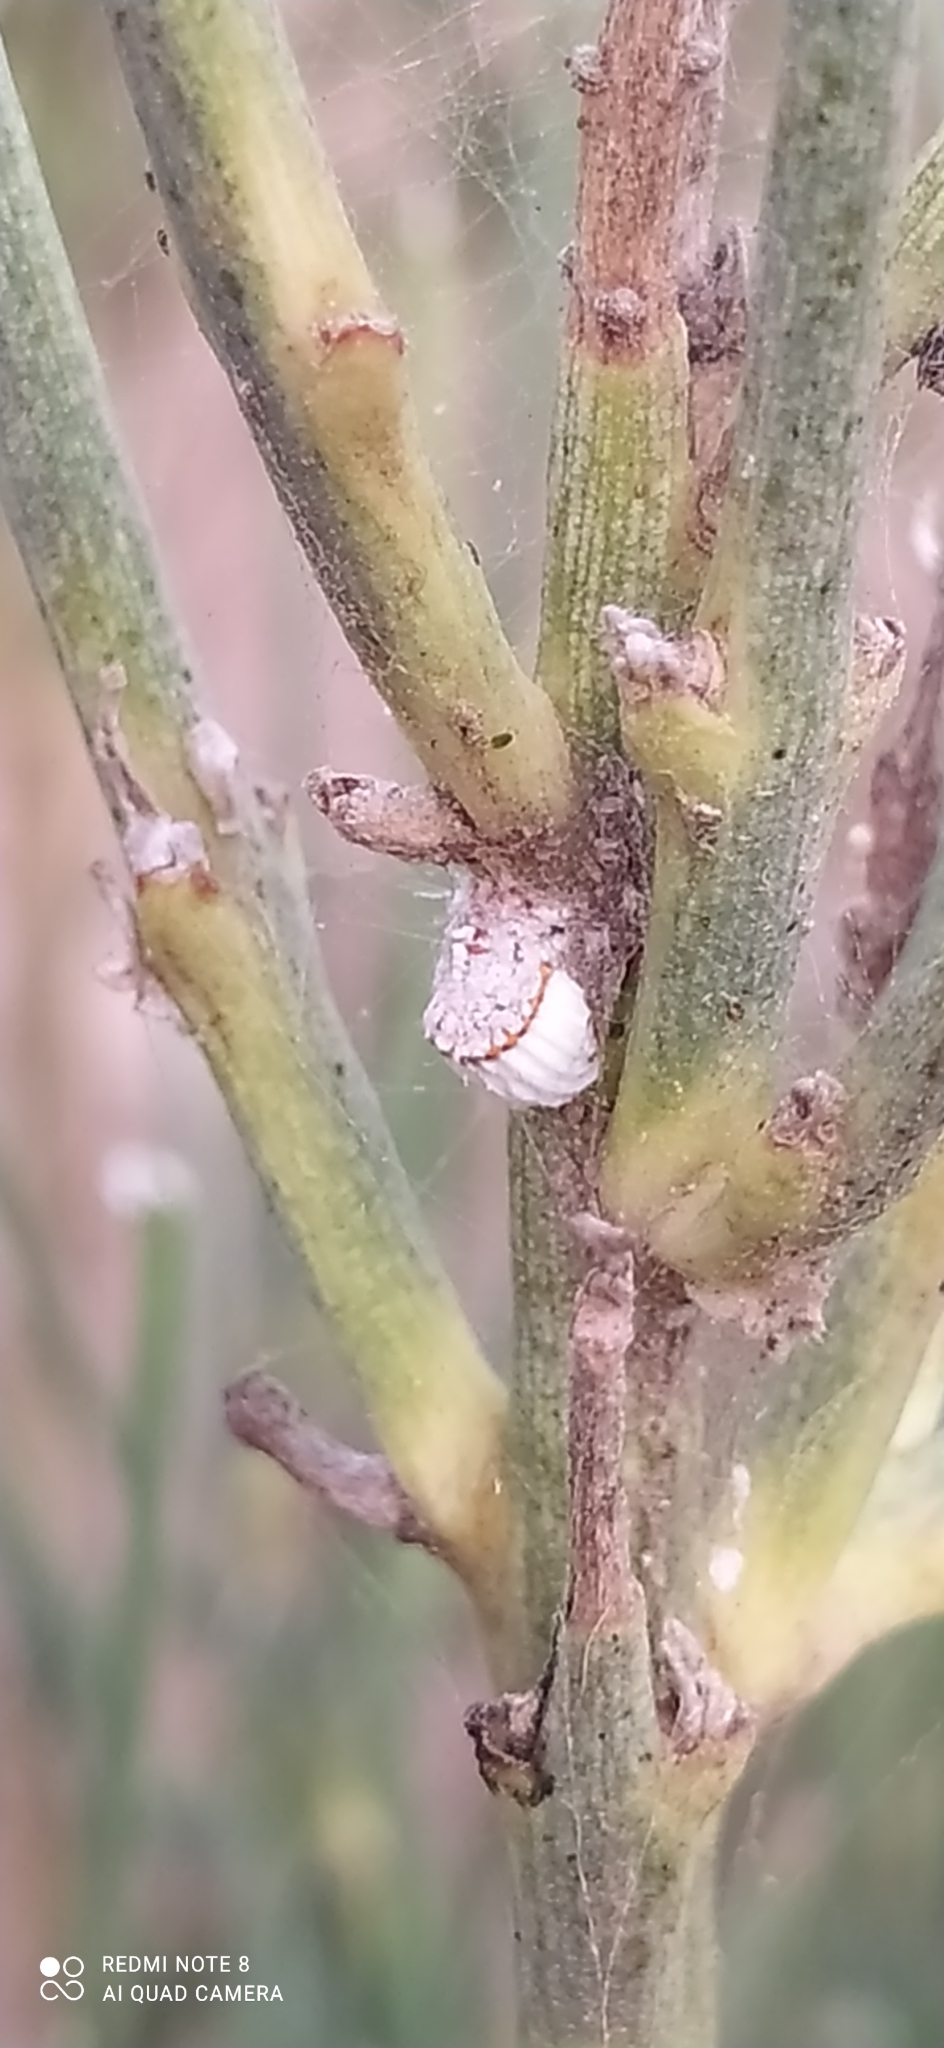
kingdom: Animalia
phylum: Arthropoda
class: Insecta
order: Hemiptera
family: Margarodidae
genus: Icerya
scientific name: Icerya purchasi
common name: Cottony cushion scale
